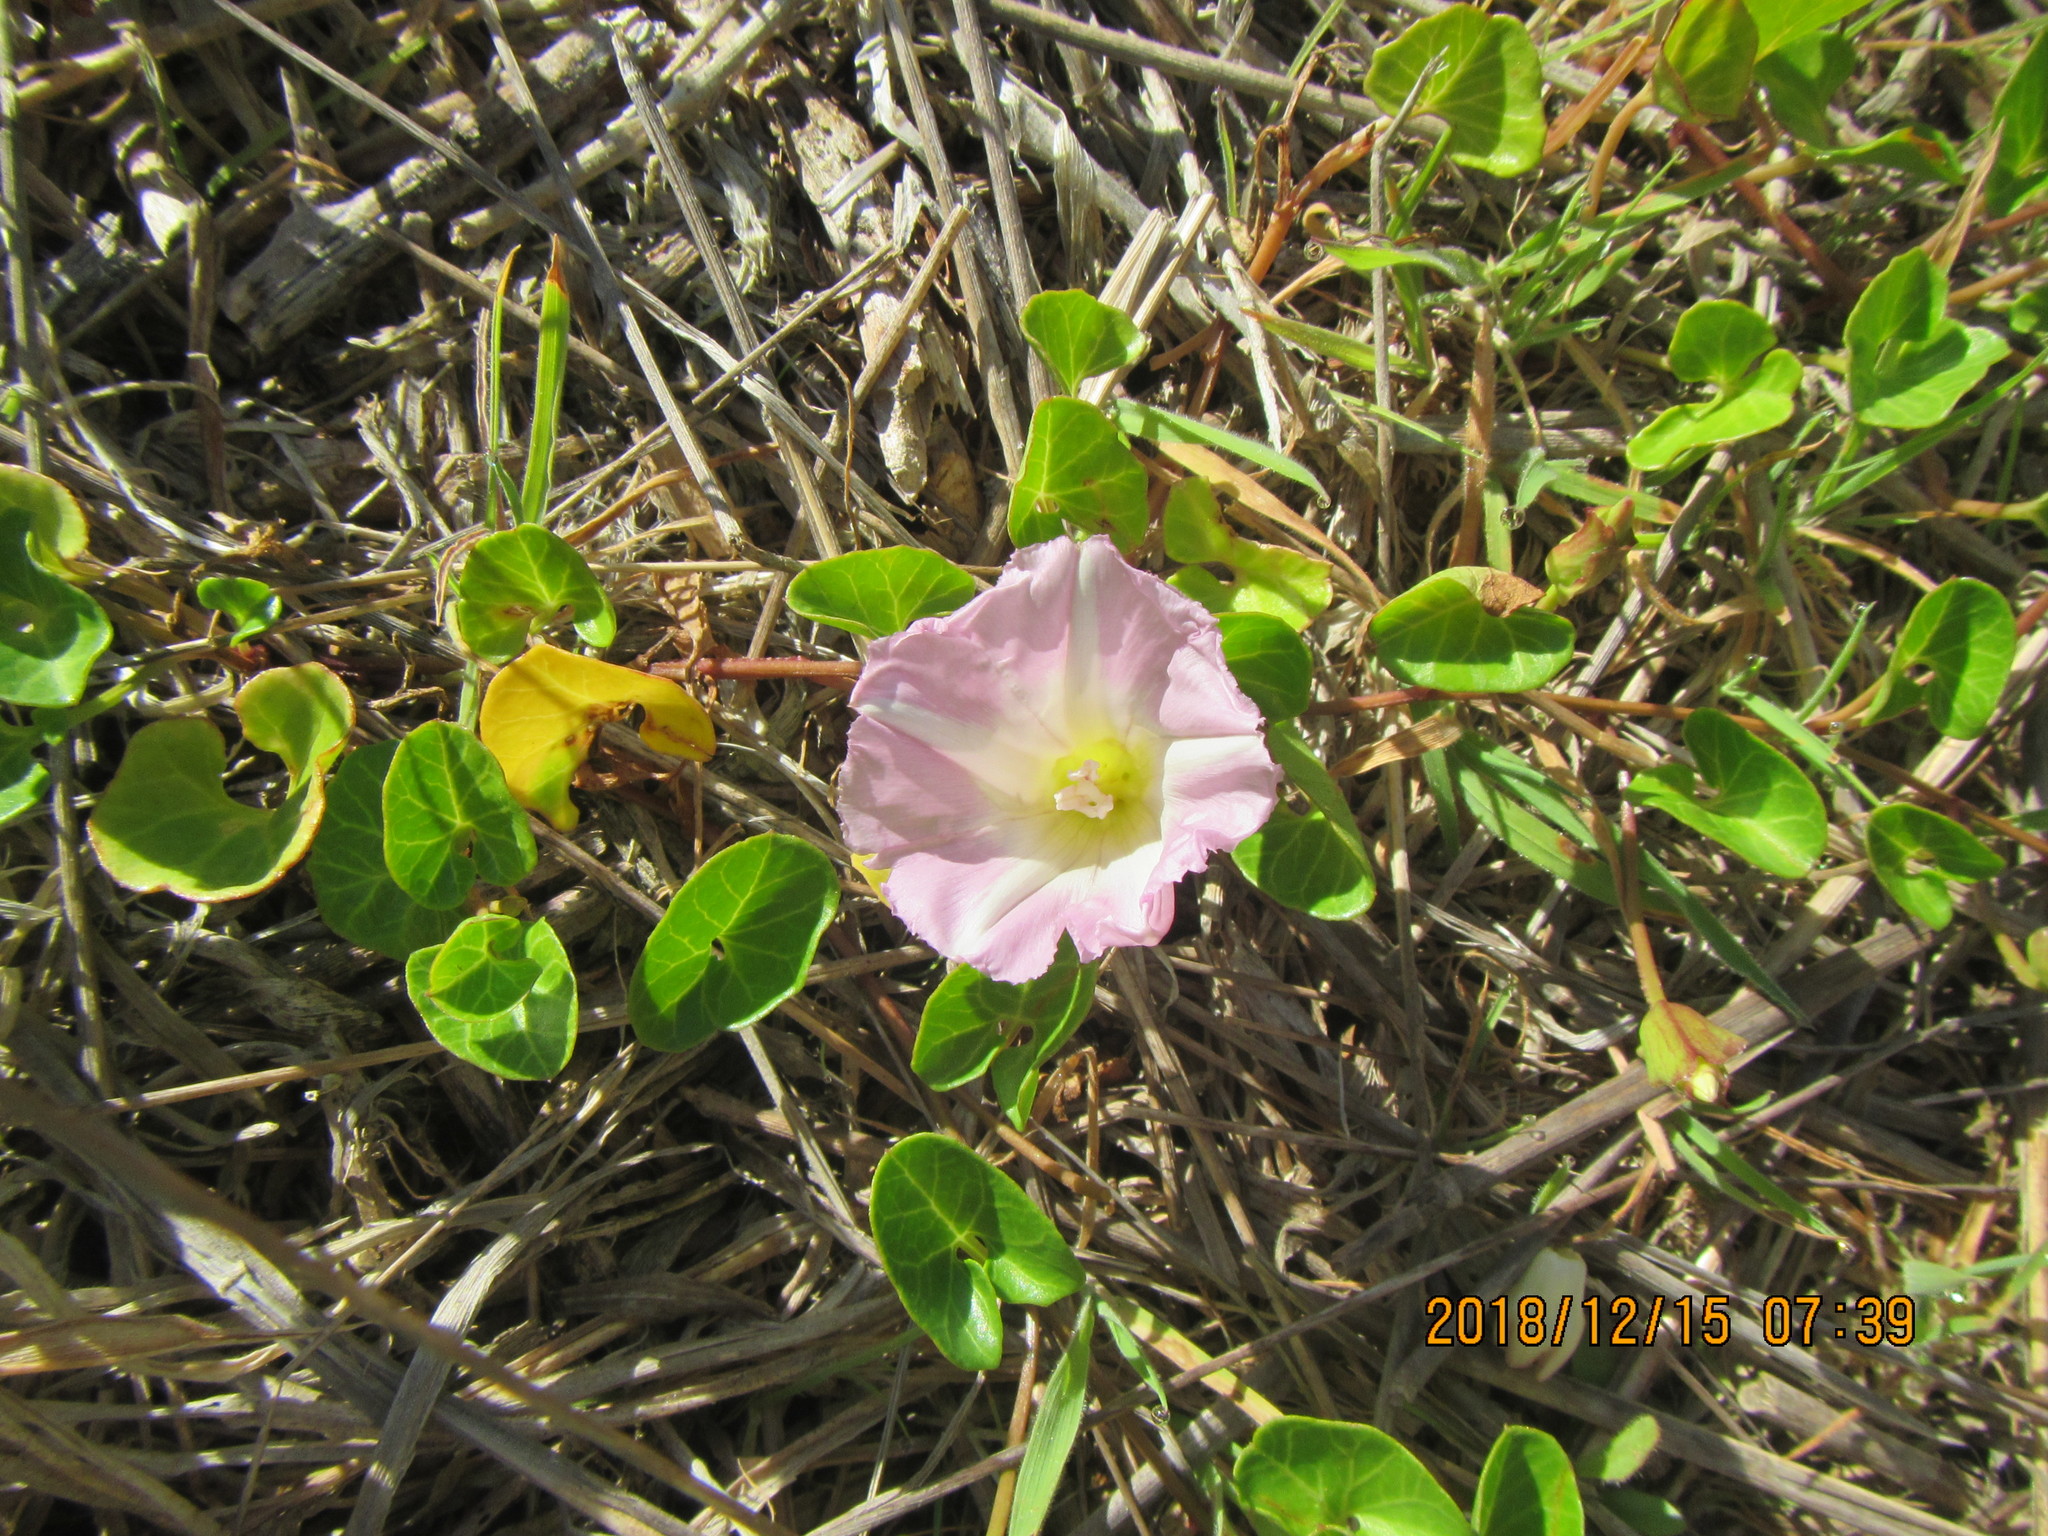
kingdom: Plantae
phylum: Tracheophyta
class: Magnoliopsida
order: Solanales
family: Convolvulaceae
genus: Calystegia
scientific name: Calystegia soldanella
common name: Sea bindweed
